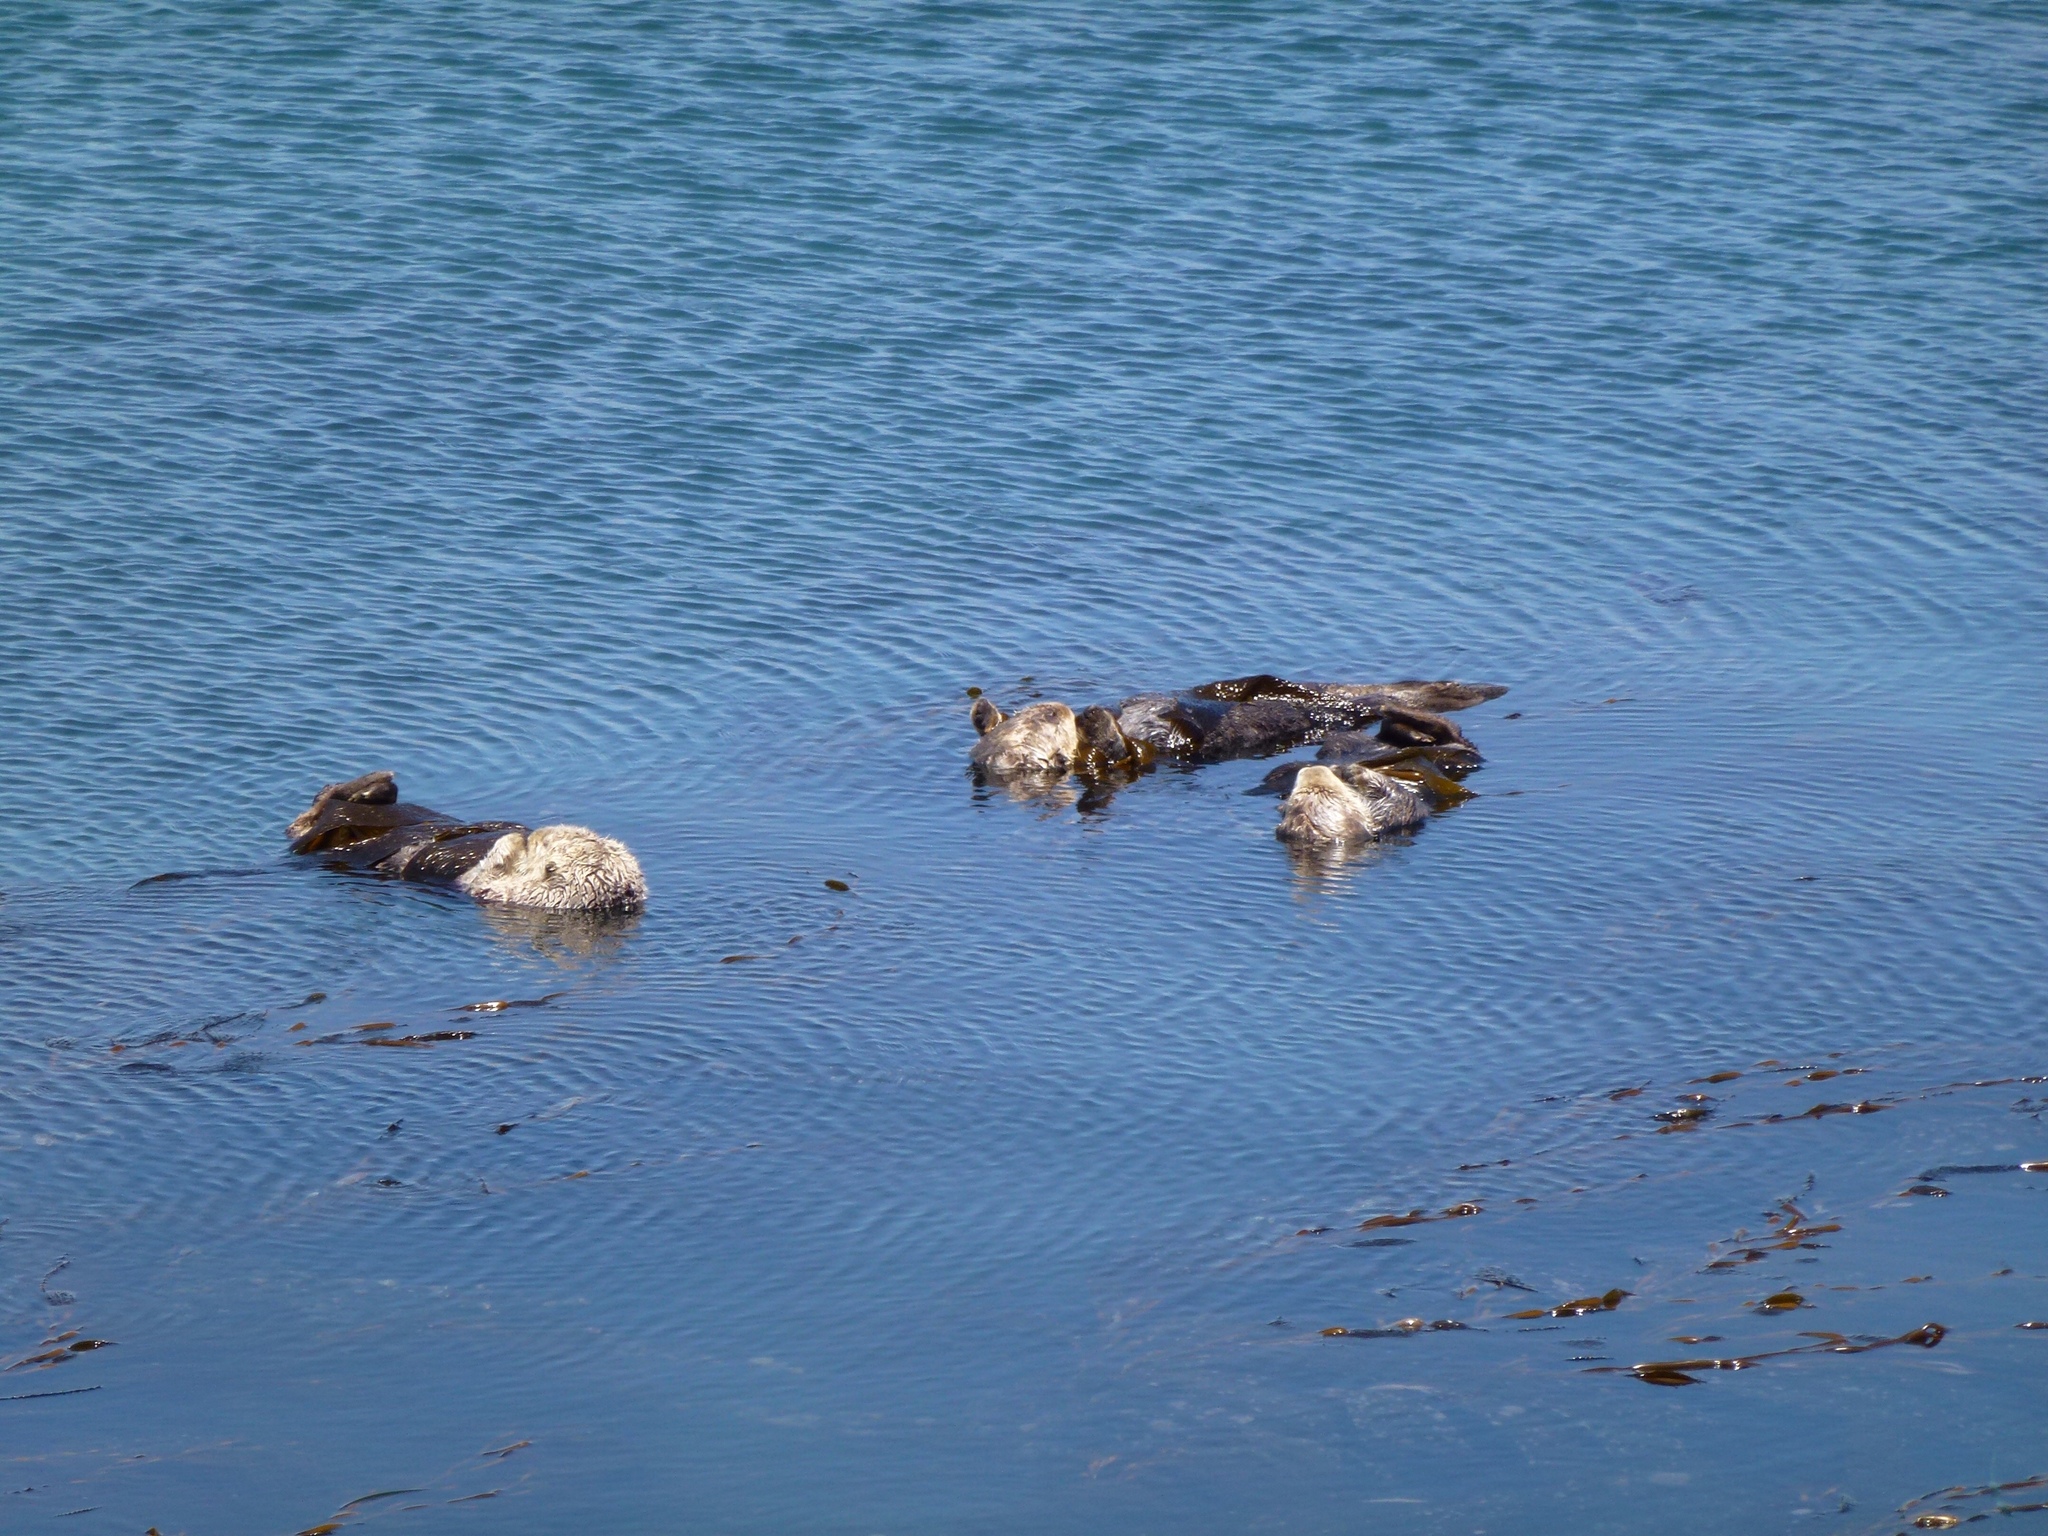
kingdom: Animalia
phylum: Chordata
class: Mammalia
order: Carnivora
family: Mustelidae
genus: Enhydra
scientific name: Enhydra lutris
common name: Sea otter
